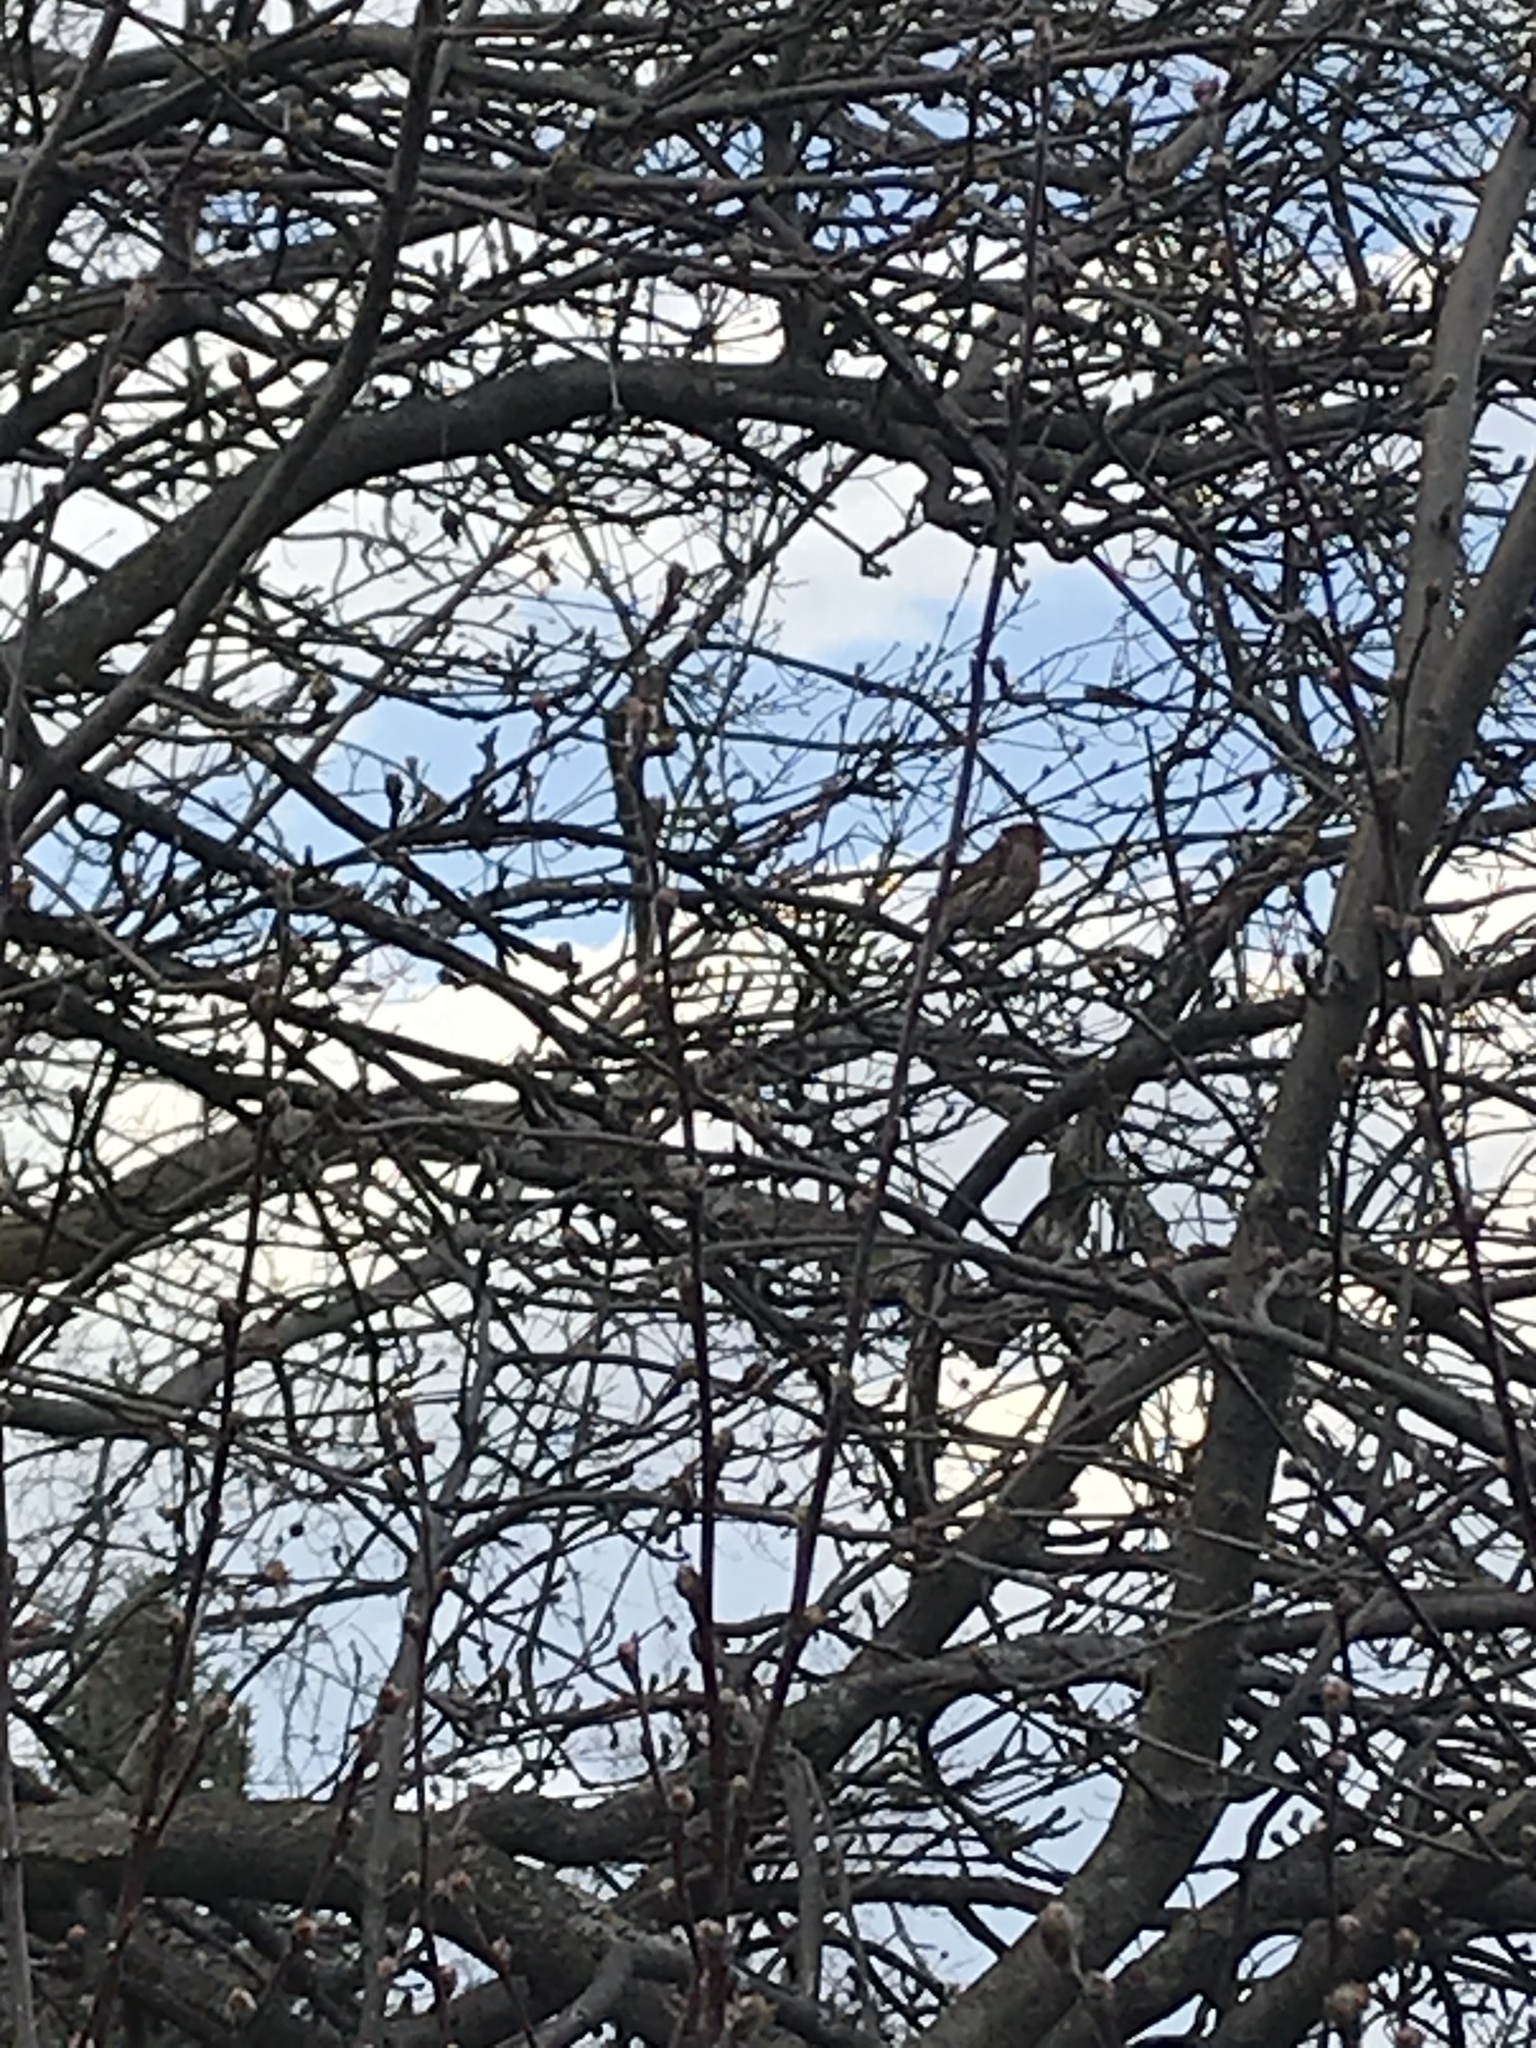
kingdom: Animalia
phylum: Chordata
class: Aves
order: Passeriformes
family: Fringillidae
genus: Haemorhous
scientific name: Haemorhous mexicanus
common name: House finch
